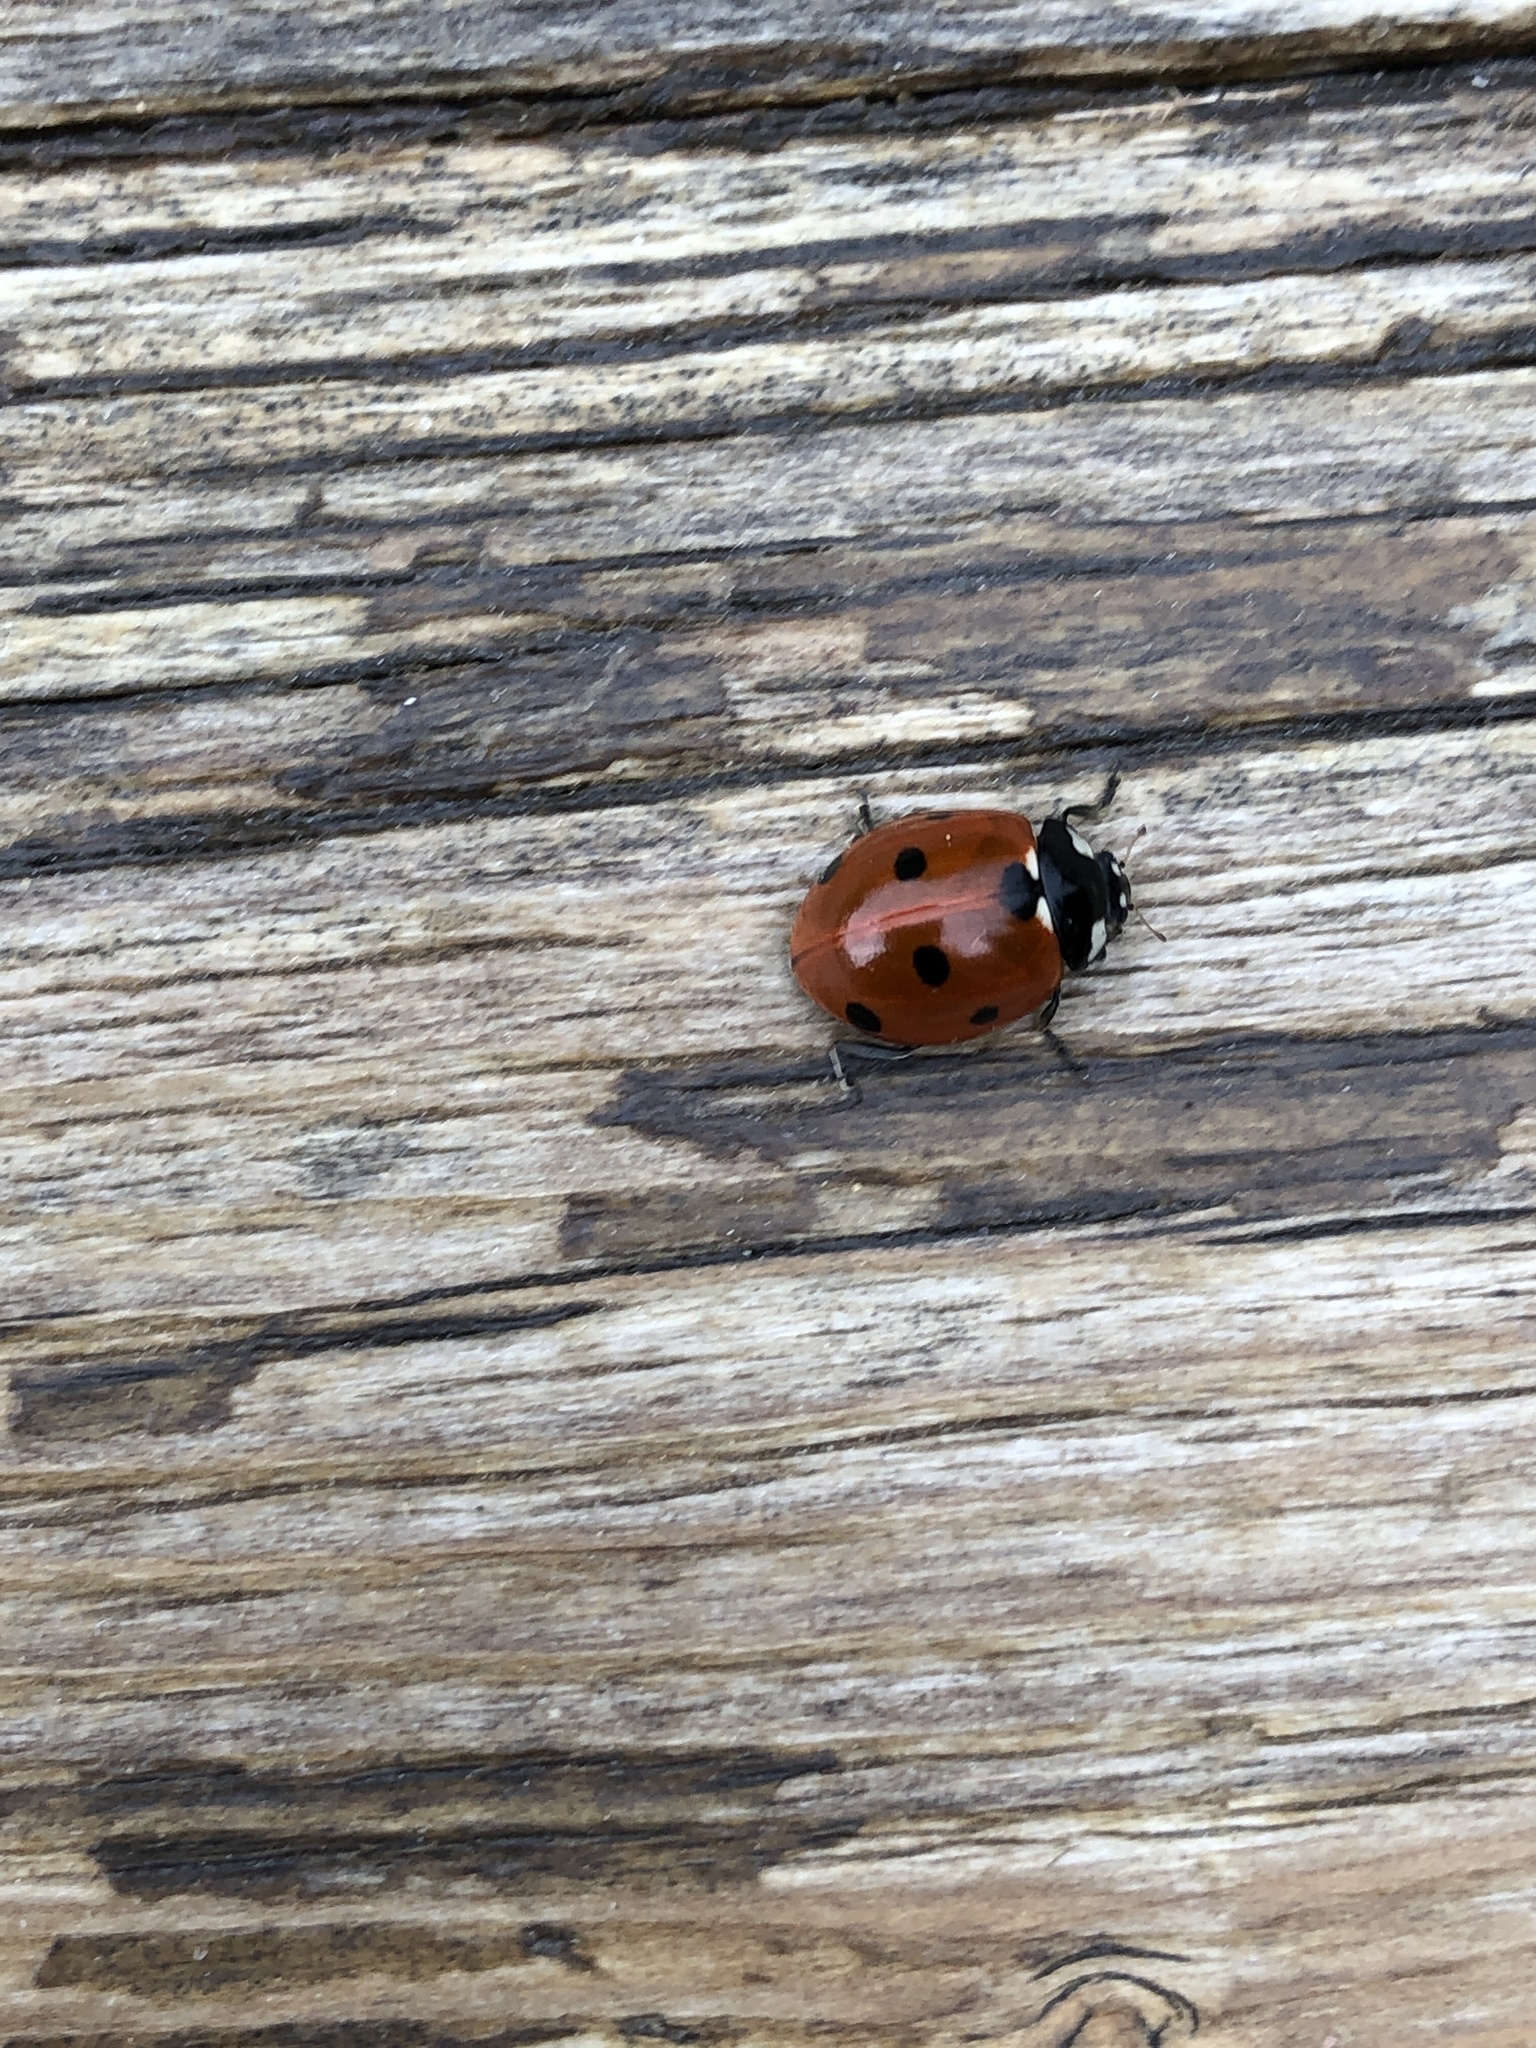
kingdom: Animalia
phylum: Arthropoda
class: Insecta
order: Coleoptera
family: Coccinellidae
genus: Coccinella
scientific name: Coccinella septempunctata
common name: Sevenspotted lady beetle
